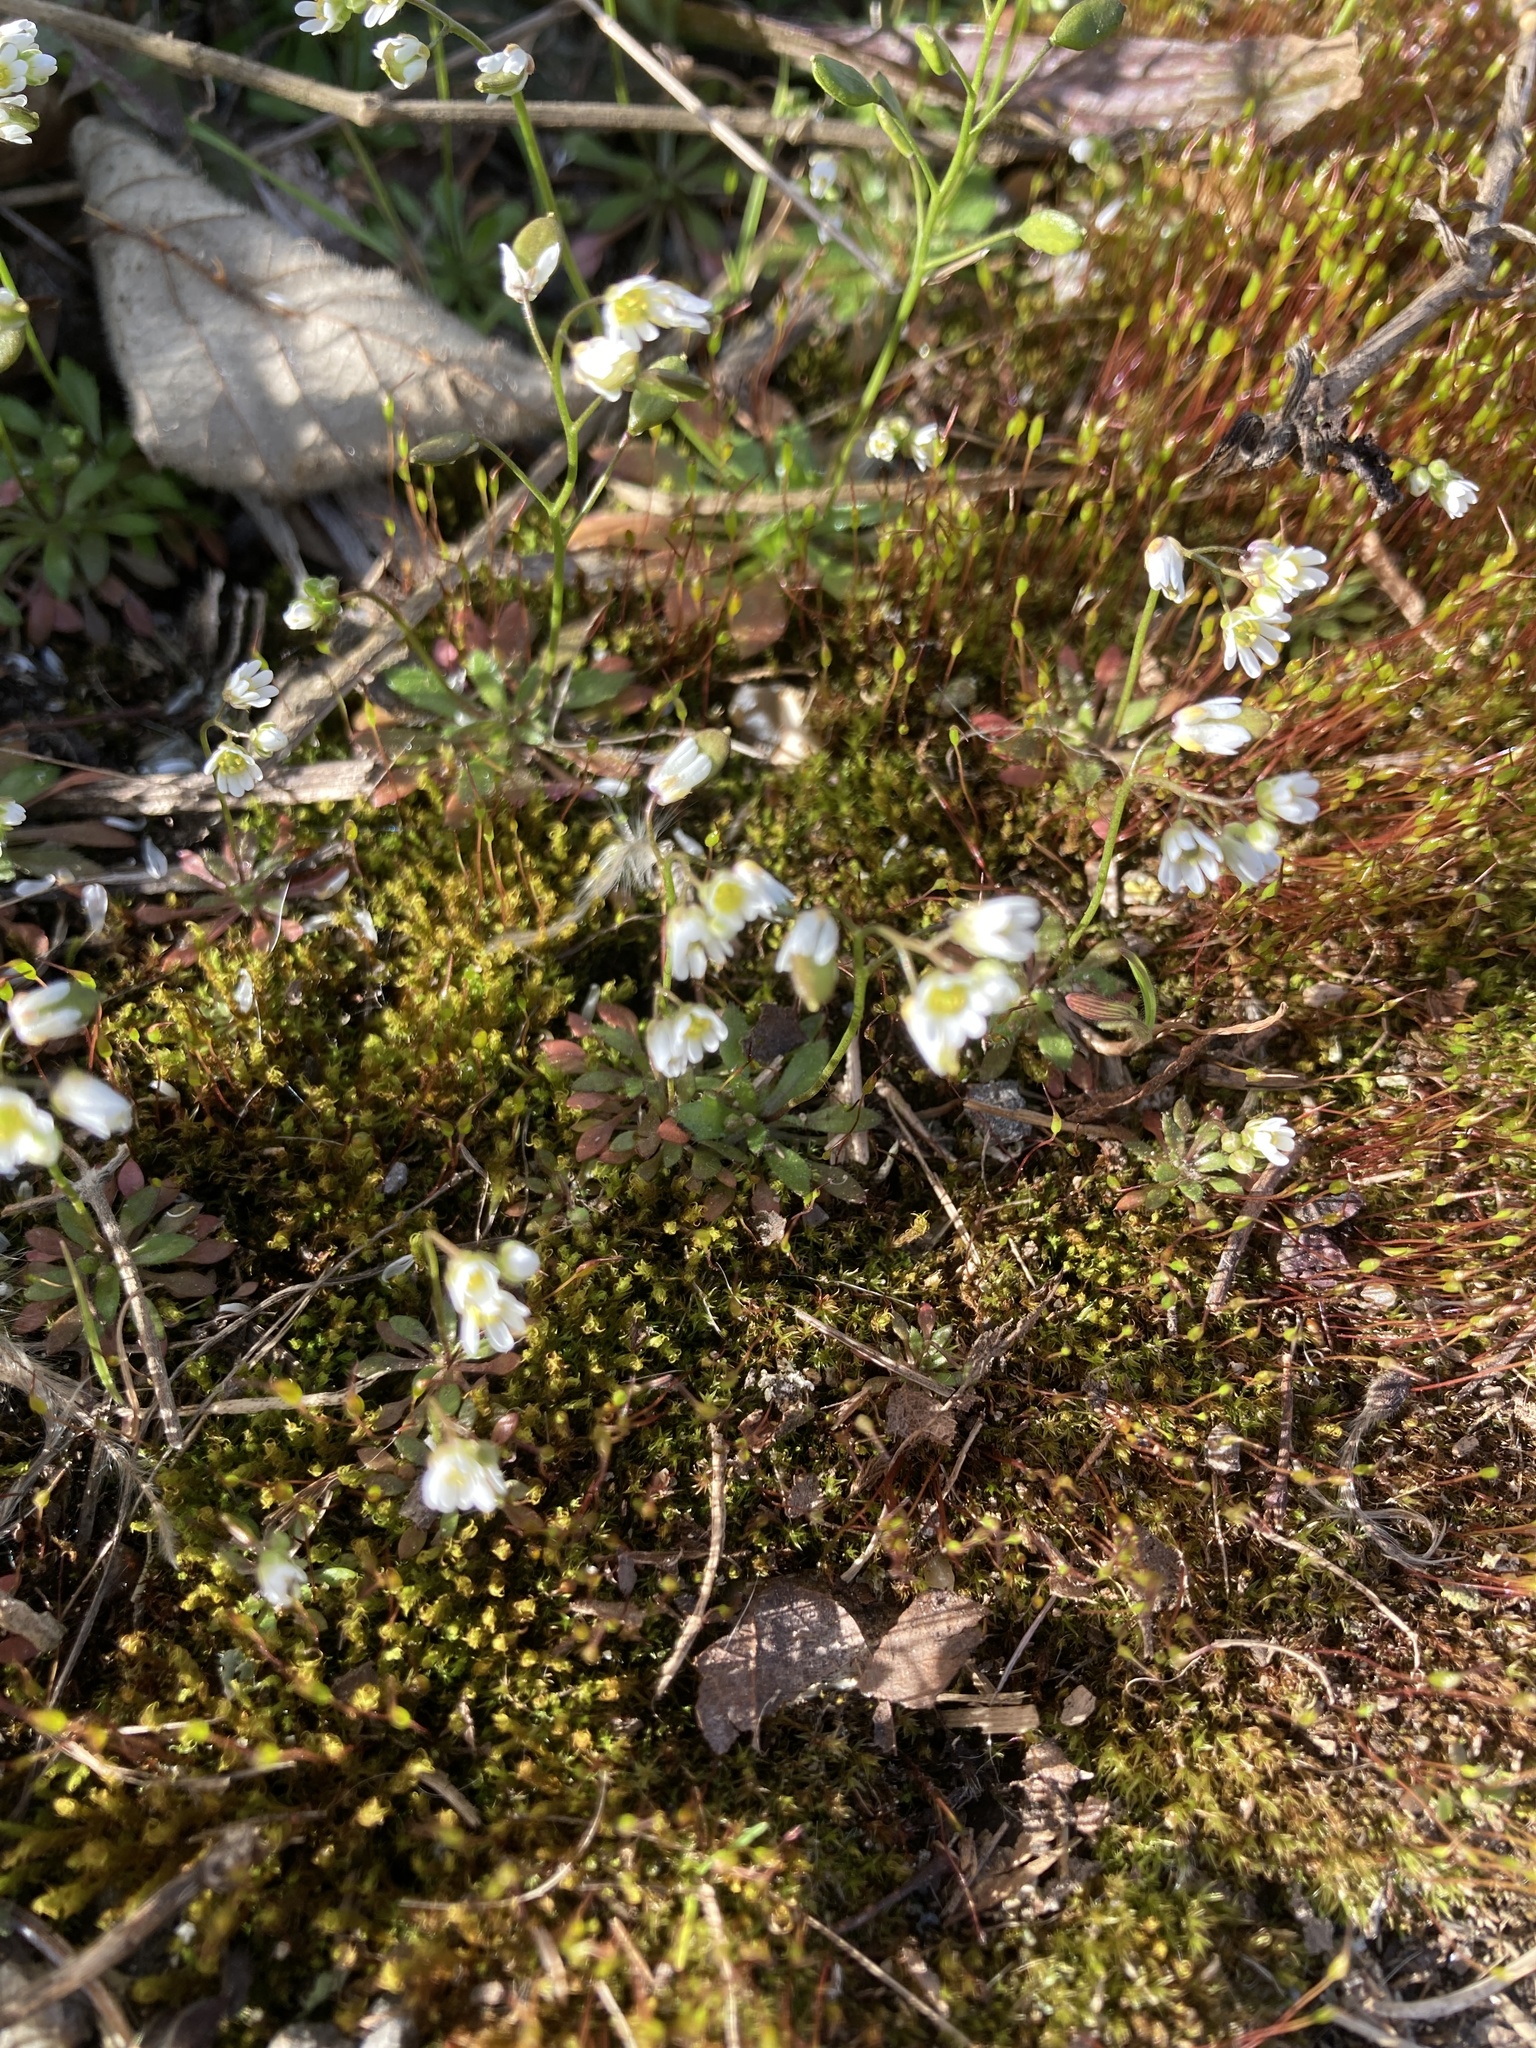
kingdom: Plantae
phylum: Tracheophyta
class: Magnoliopsida
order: Brassicales
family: Brassicaceae
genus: Draba
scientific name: Draba verna
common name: Spring draba
